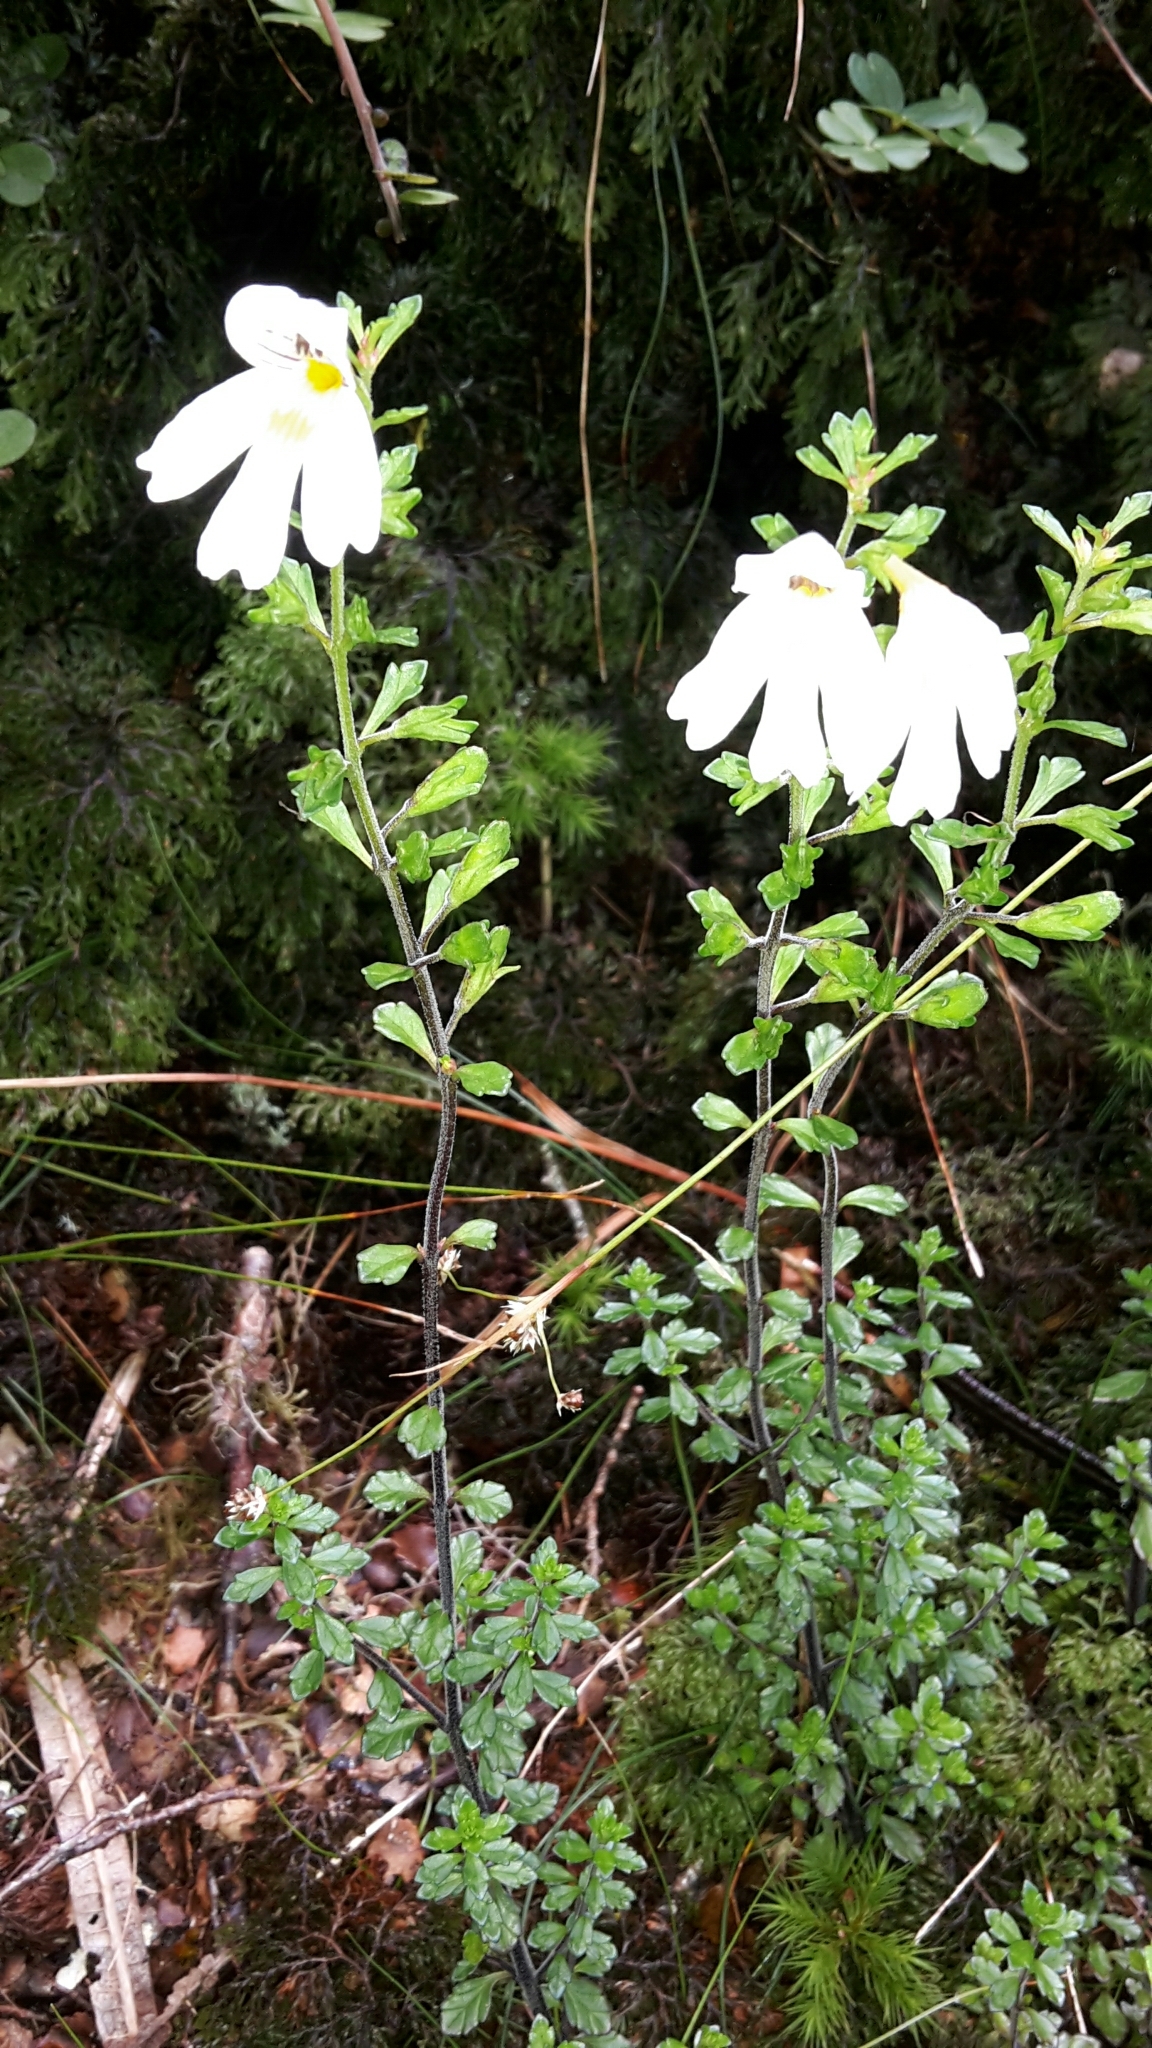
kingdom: Plantae
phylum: Tracheophyta
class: Magnoliopsida
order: Lamiales
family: Orobanchaceae
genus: Euphrasia
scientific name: Euphrasia cuneata
